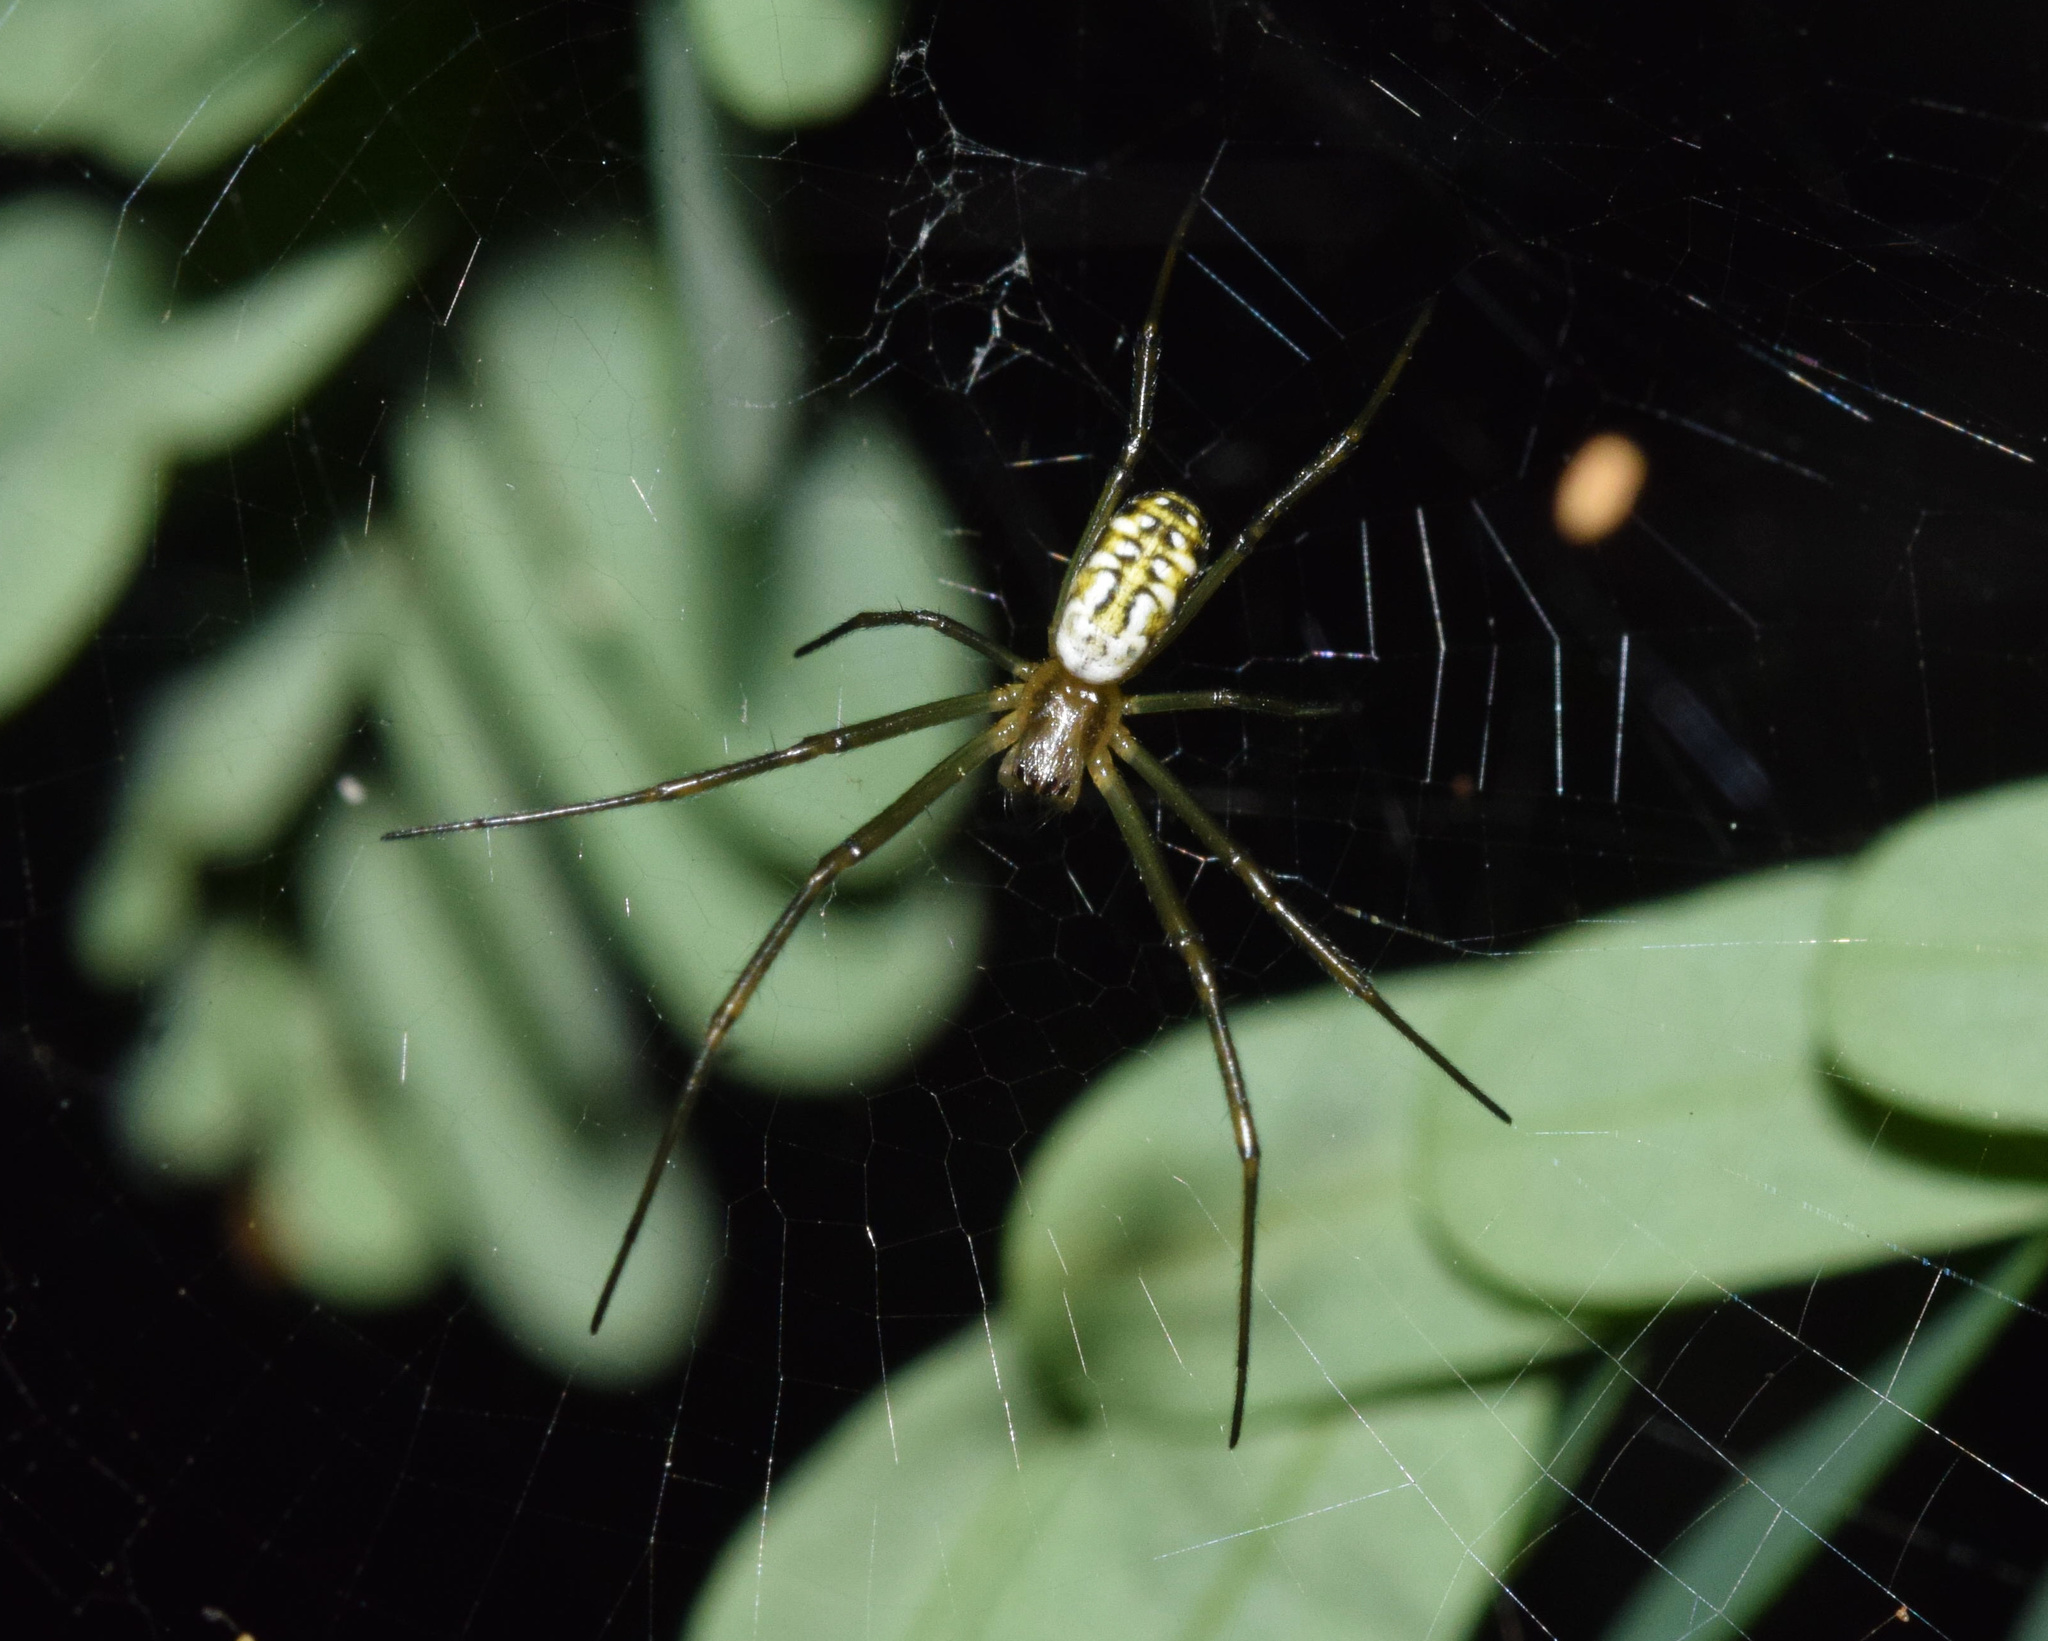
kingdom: Animalia
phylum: Arthropoda
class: Arachnida
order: Araneae
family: Araneidae
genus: Trichonephila
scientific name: Trichonephila fenestrata
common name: Hairy golden orb weaver
